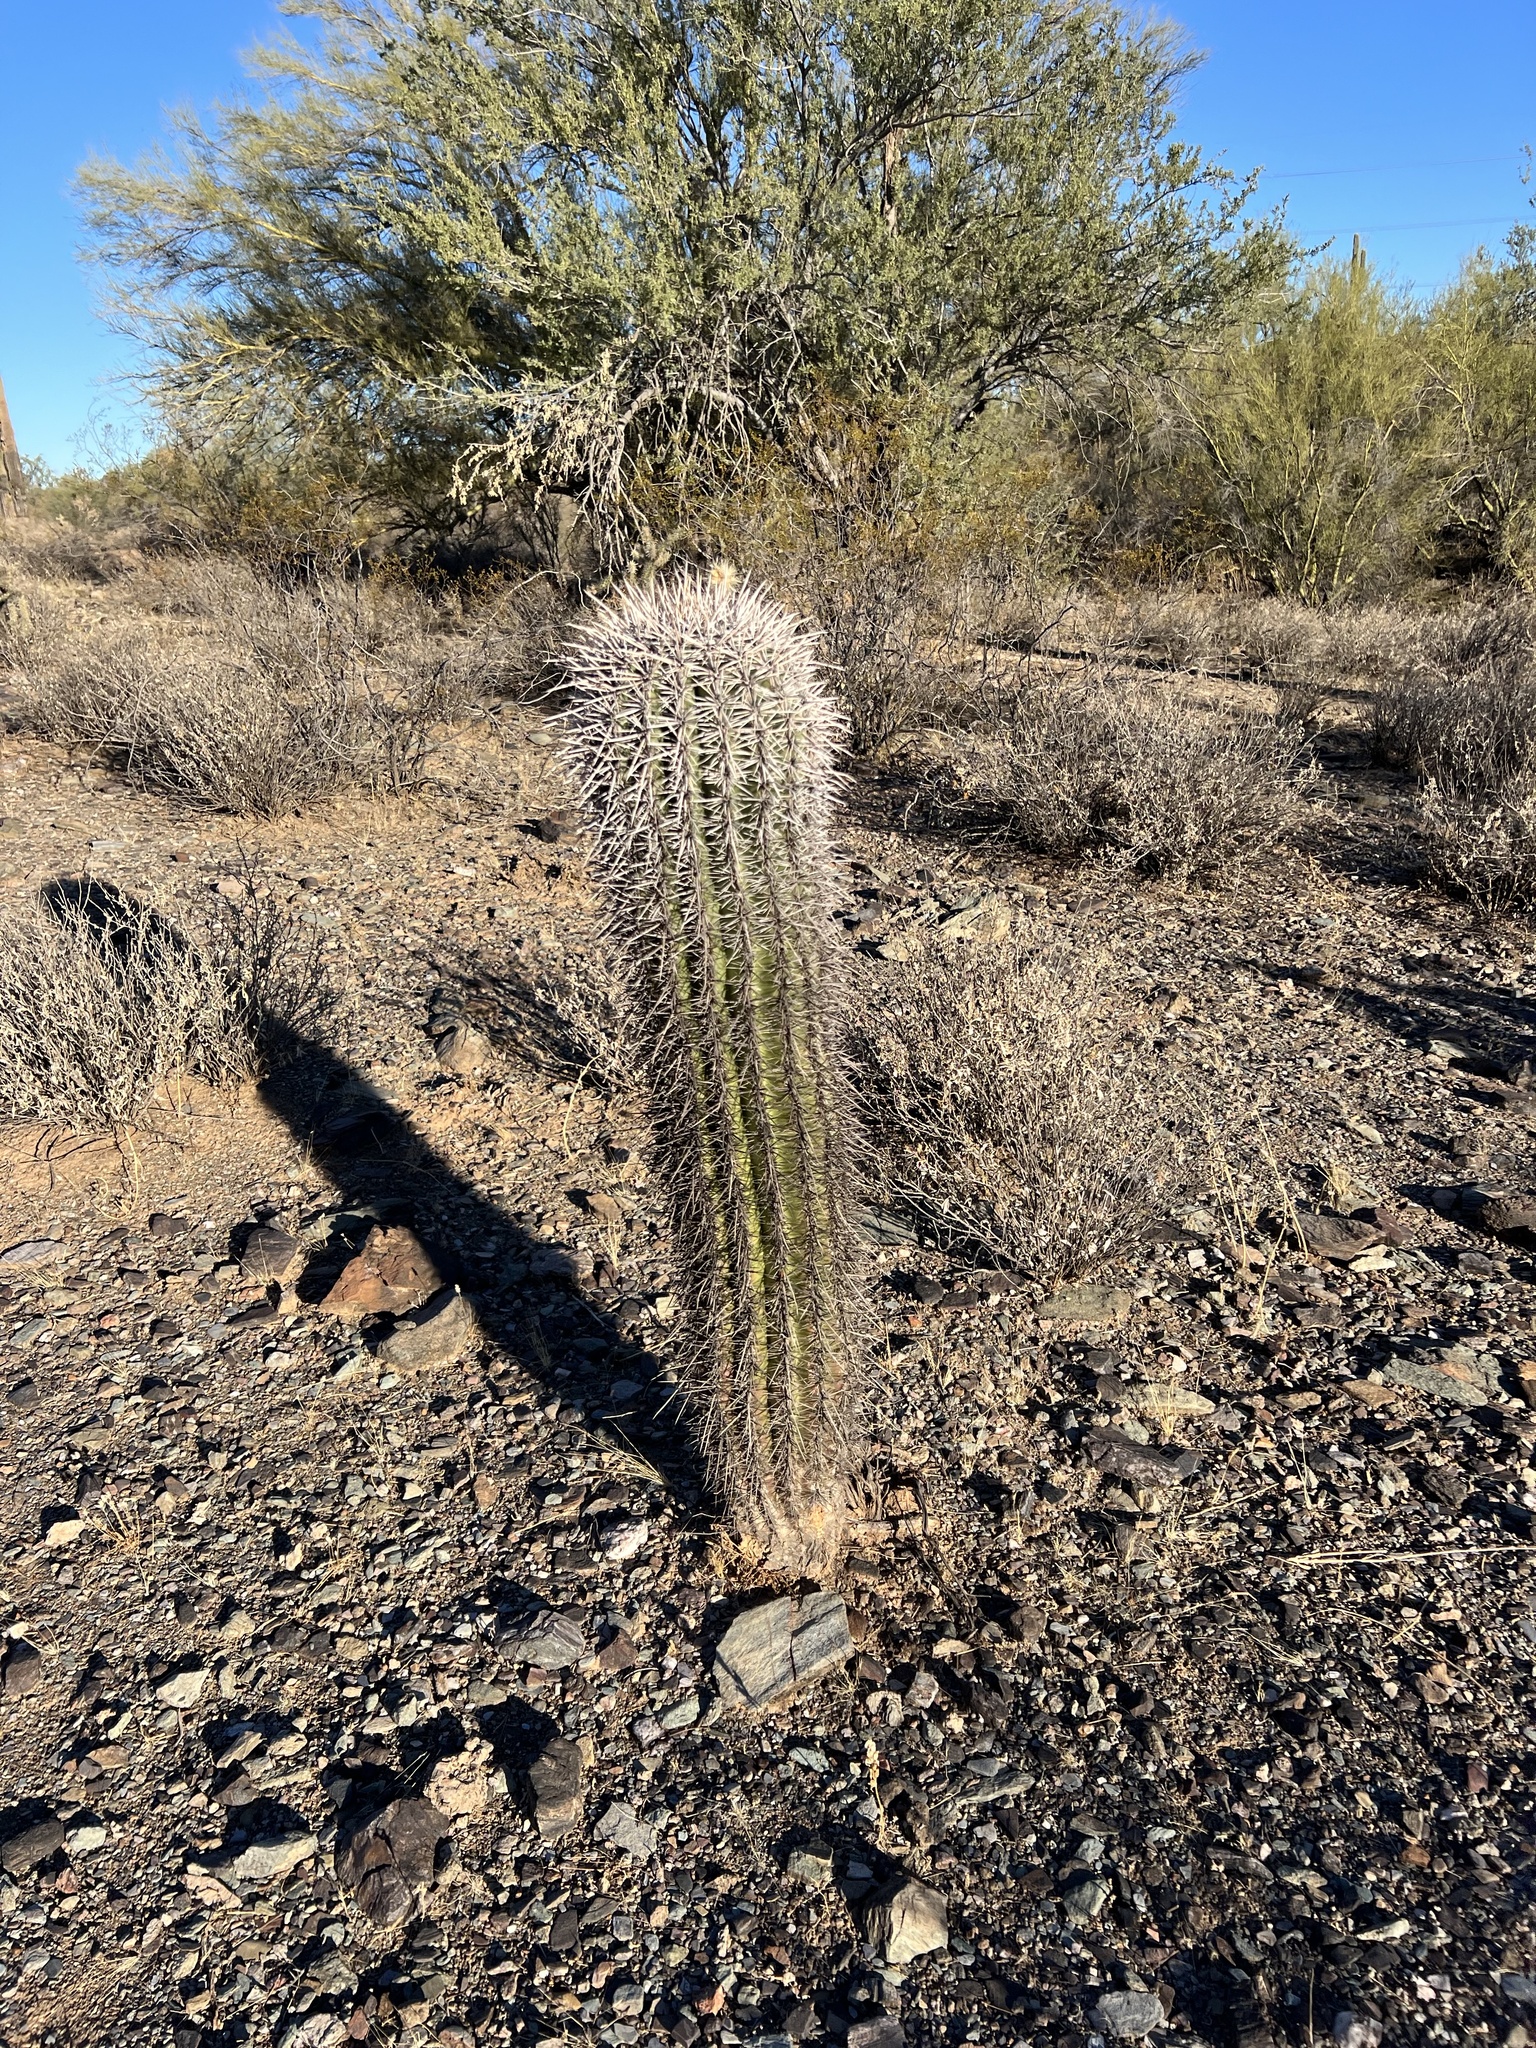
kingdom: Plantae
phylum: Tracheophyta
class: Magnoliopsida
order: Caryophyllales
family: Cactaceae
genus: Carnegiea
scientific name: Carnegiea gigantea
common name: Saguaro
